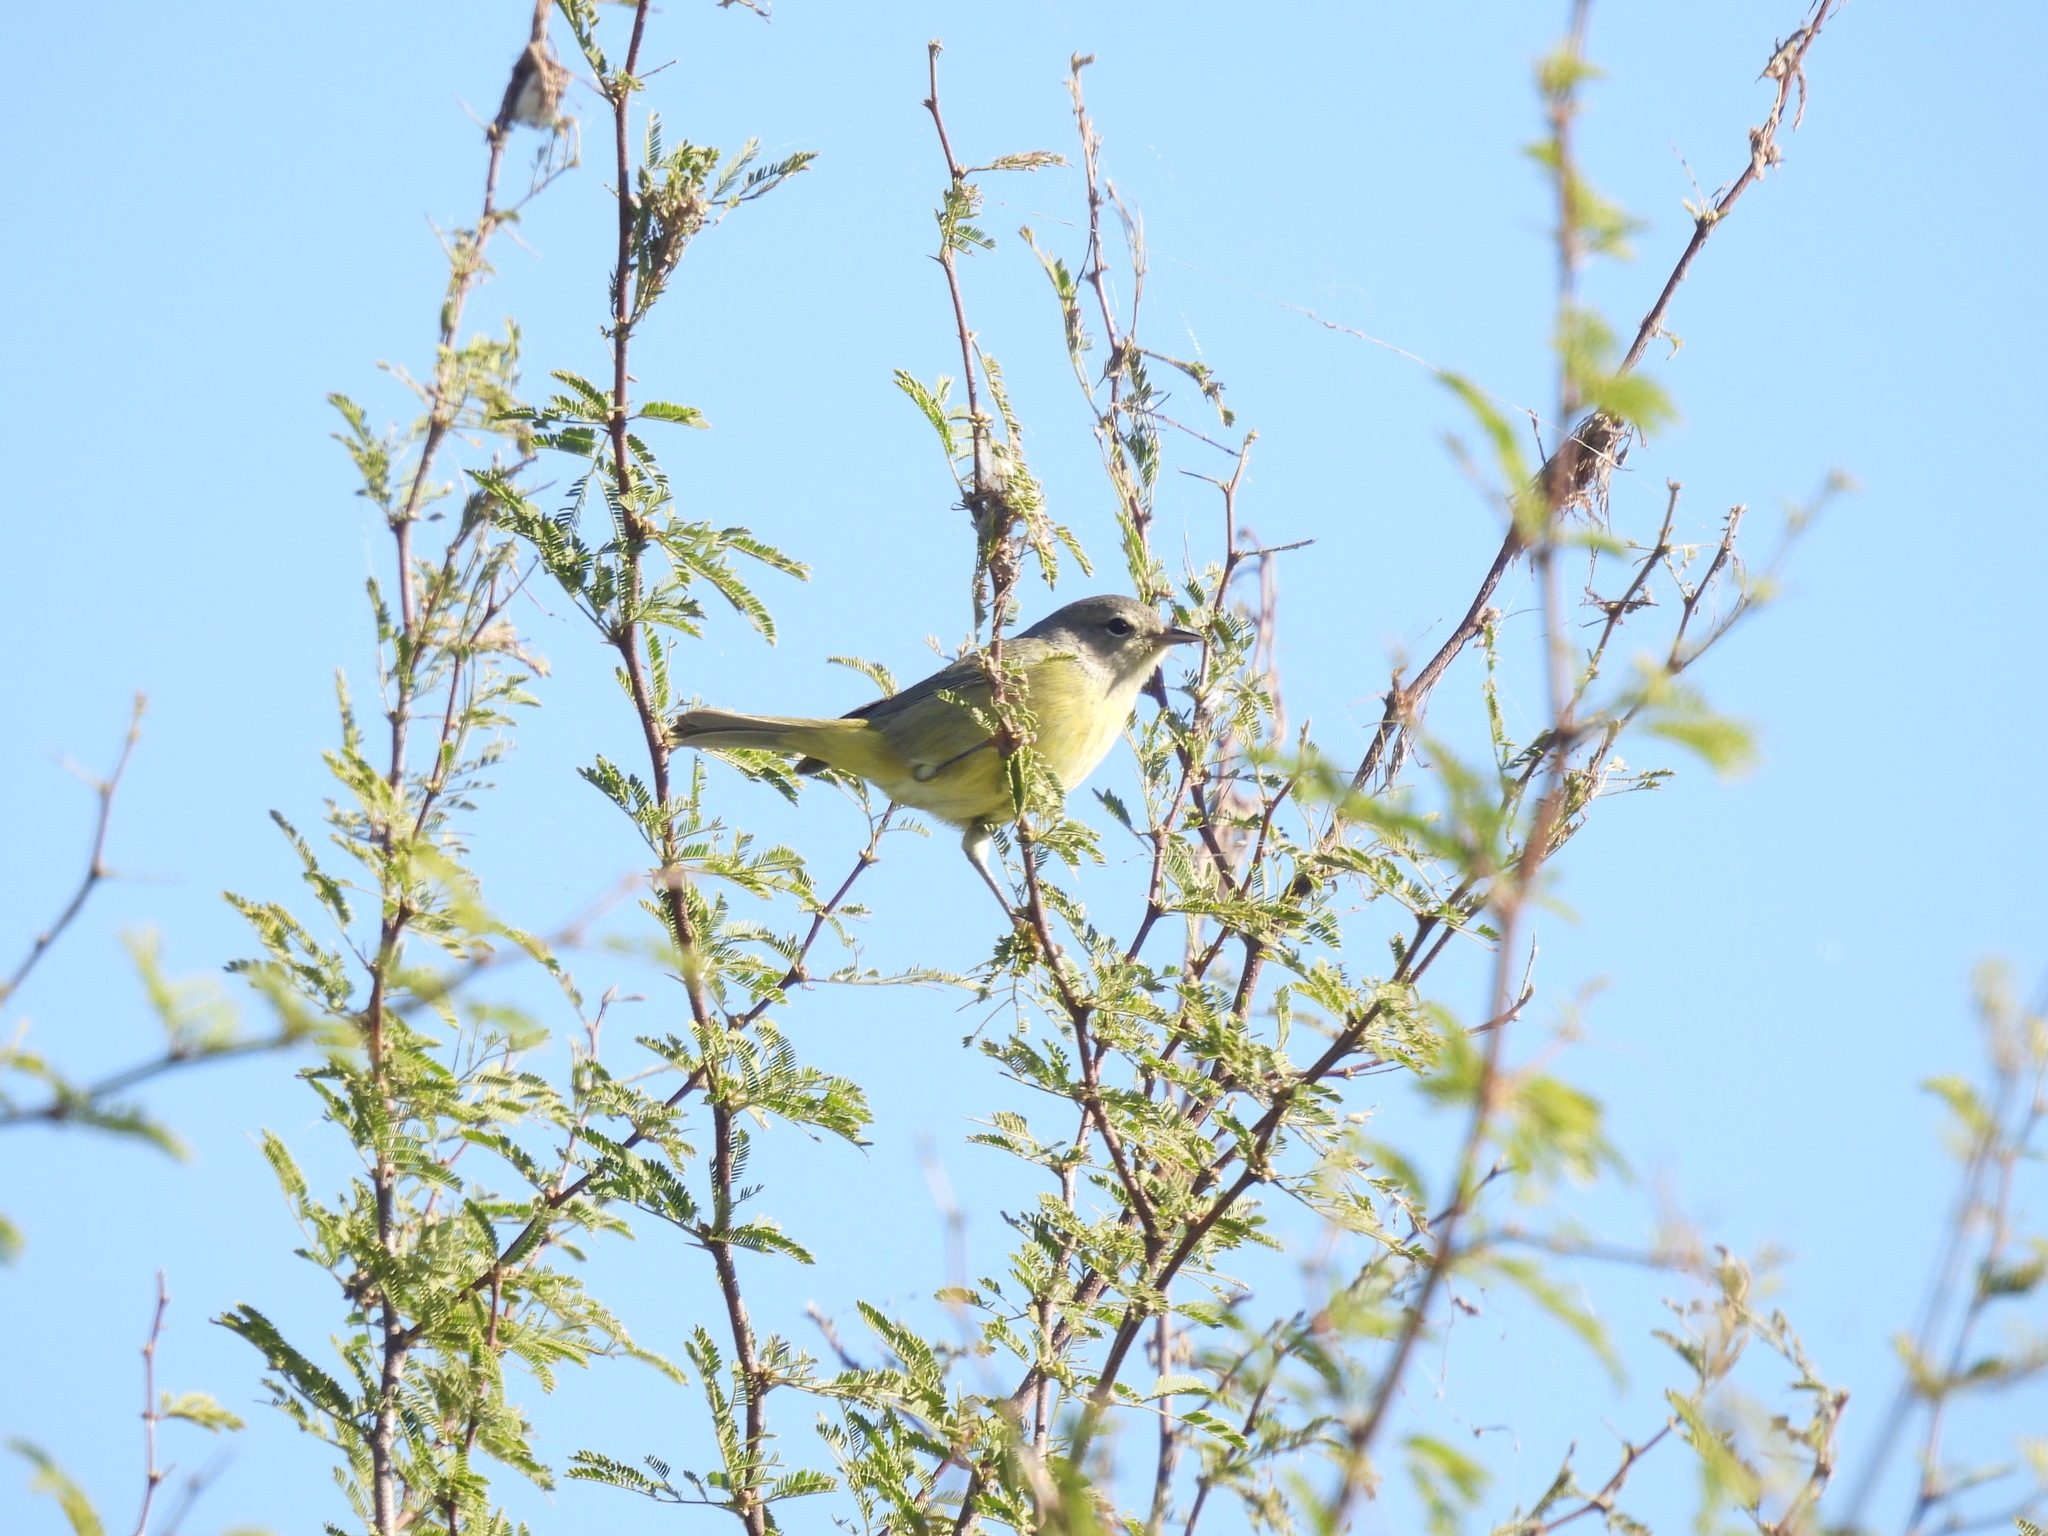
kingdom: Animalia
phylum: Chordata
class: Aves
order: Passeriformes
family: Parulidae
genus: Leiothlypis
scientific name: Leiothlypis celata
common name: Orange-crowned warbler
